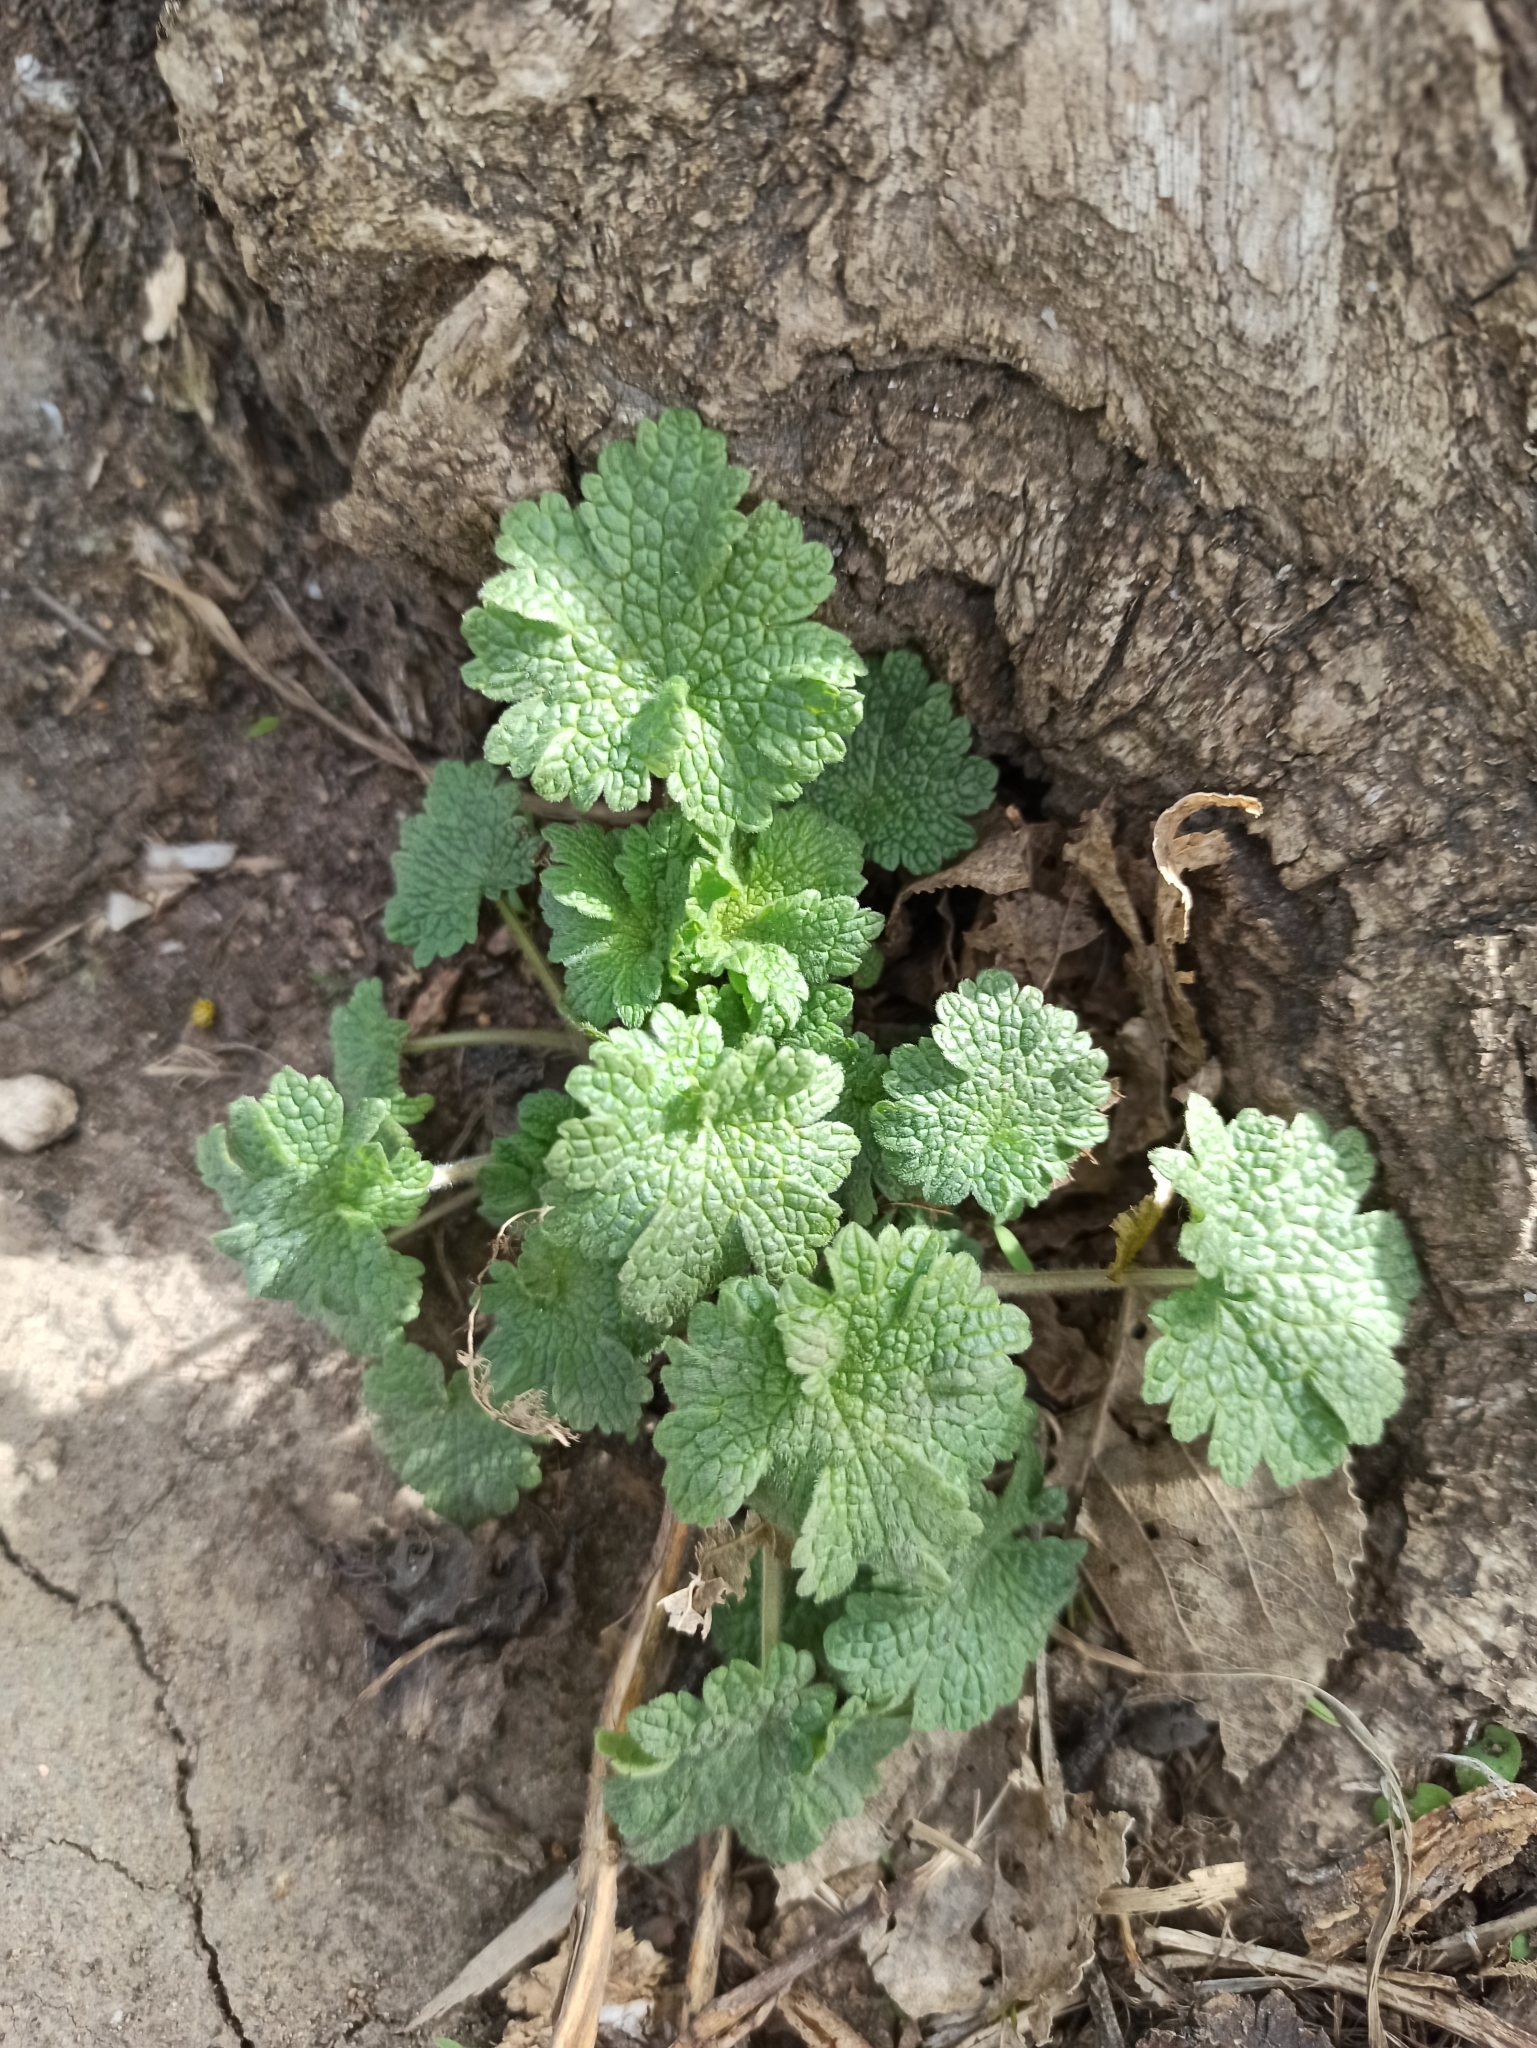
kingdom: Plantae
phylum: Tracheophyta
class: Magnoliopsida
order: Lamiales
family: Lamiaceae
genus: Leonurus
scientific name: Leonurus quinquelobatus
